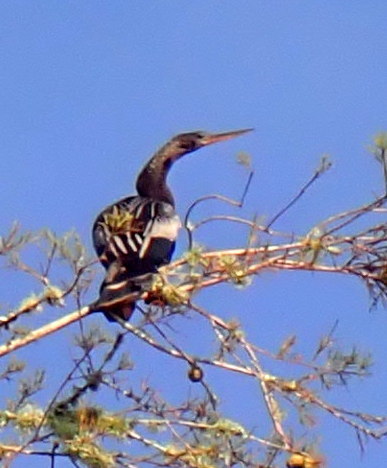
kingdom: Animalia
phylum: Chordata
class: Aves
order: Suliformes
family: Anhingidae
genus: Anhinga
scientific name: Anhinga anhinga
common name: Anhinga
